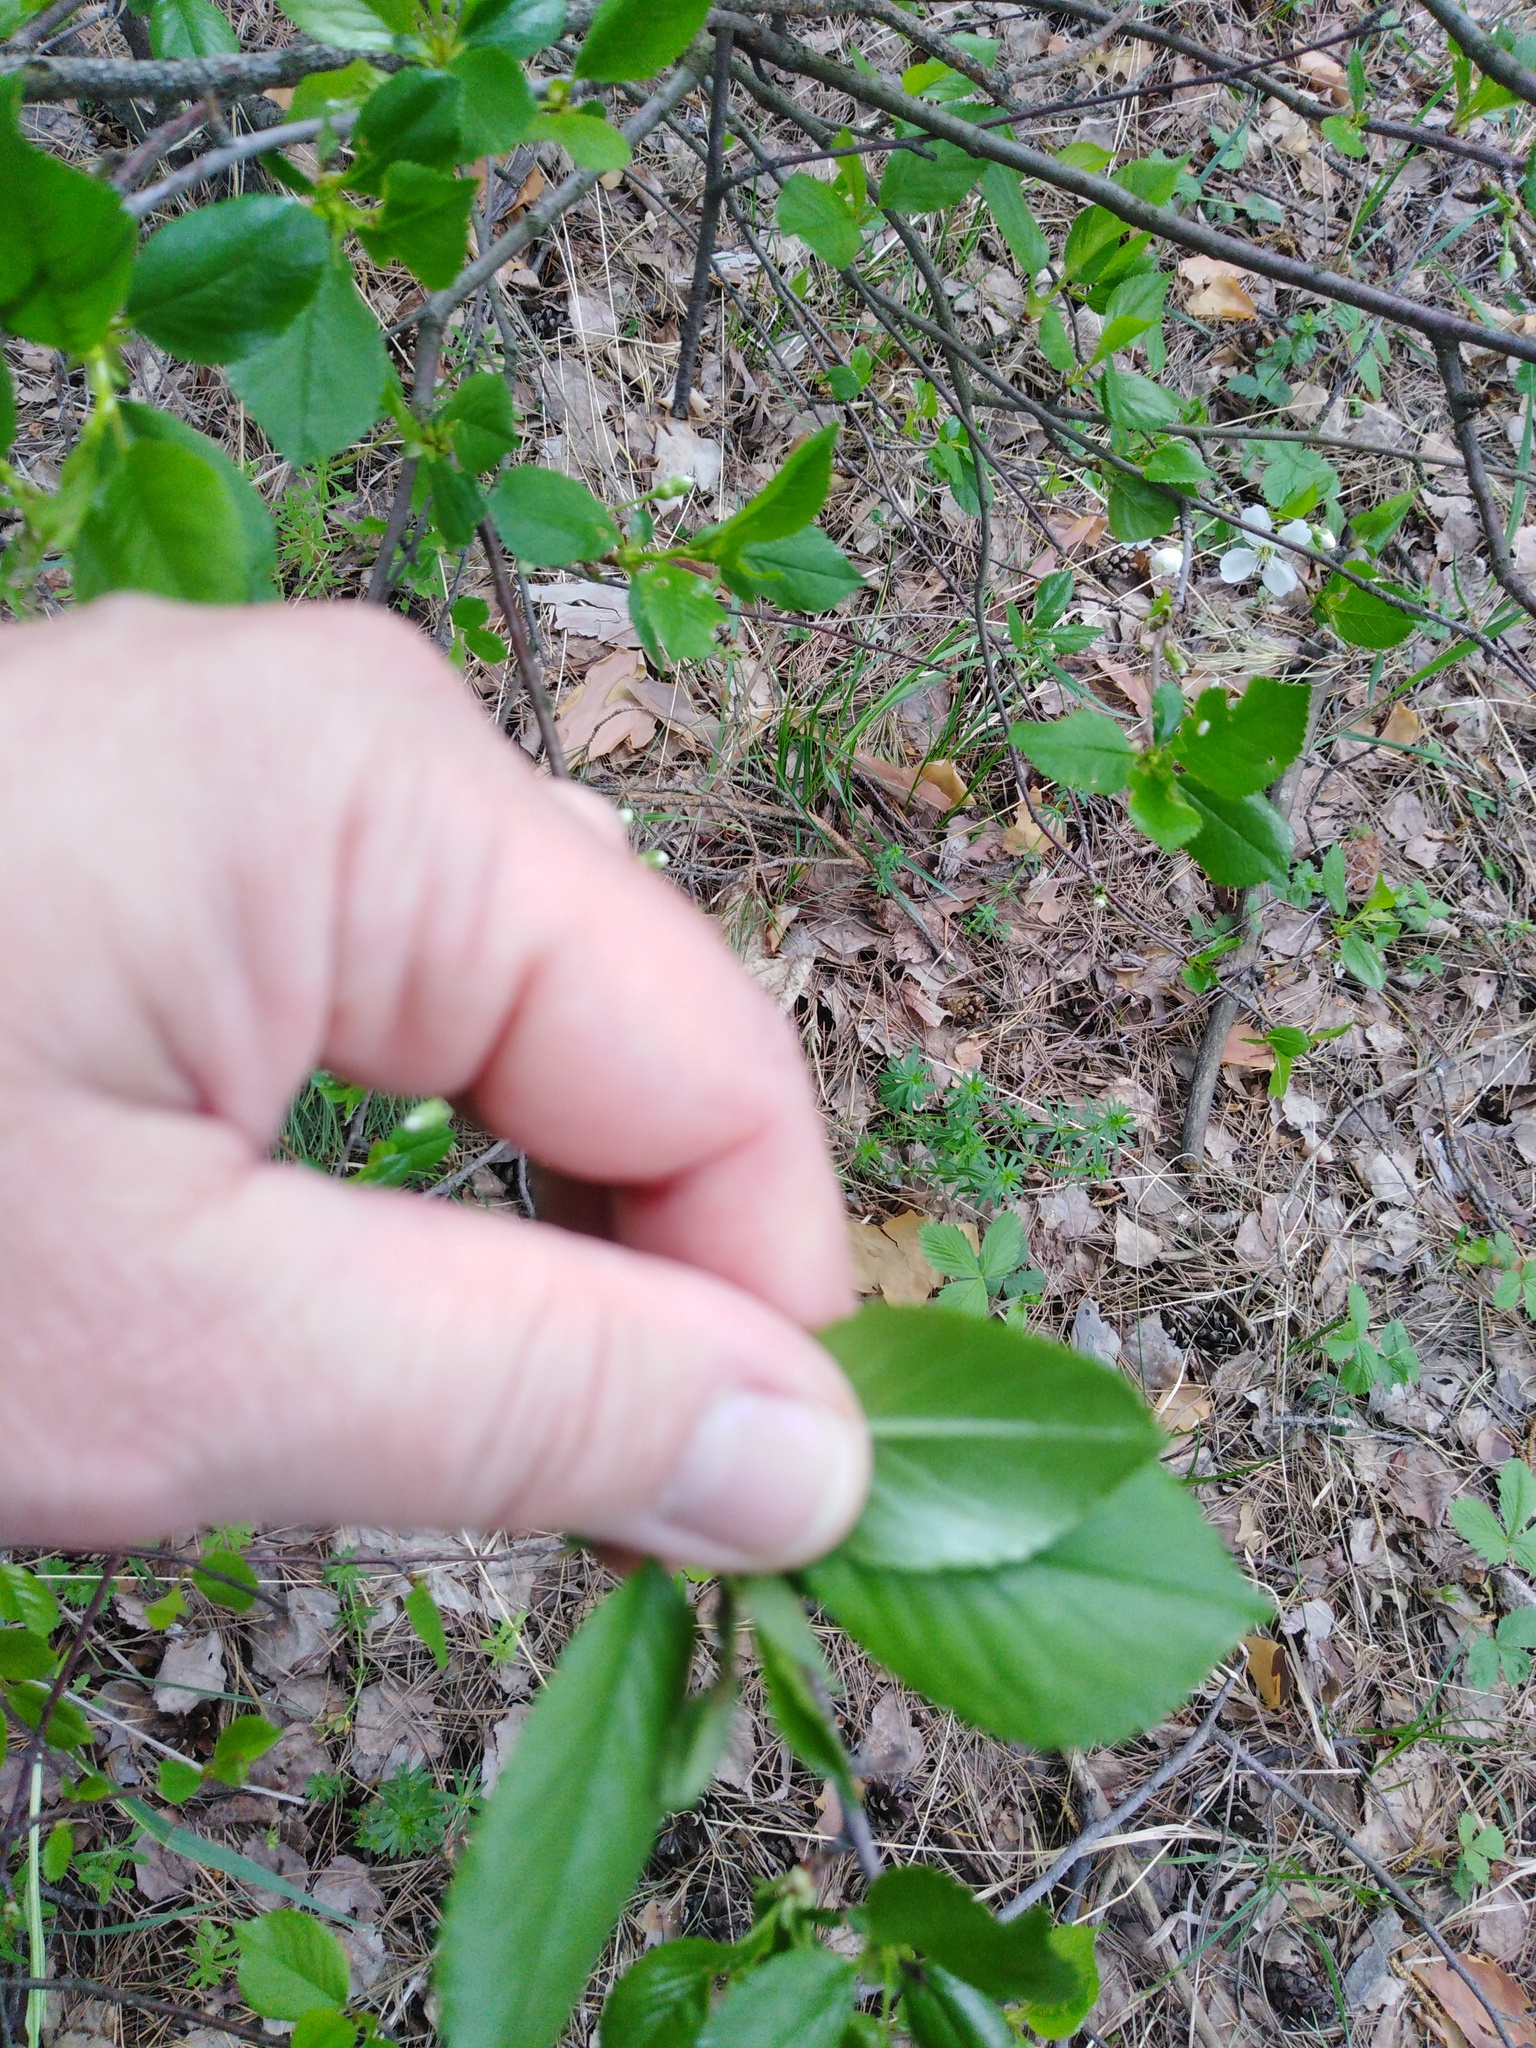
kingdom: Plantae
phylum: Tracheophyta
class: Magnoliopsida
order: Rosales
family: Rosaceae
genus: Prunus
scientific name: Prunus cerasus
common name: Morello cherry
